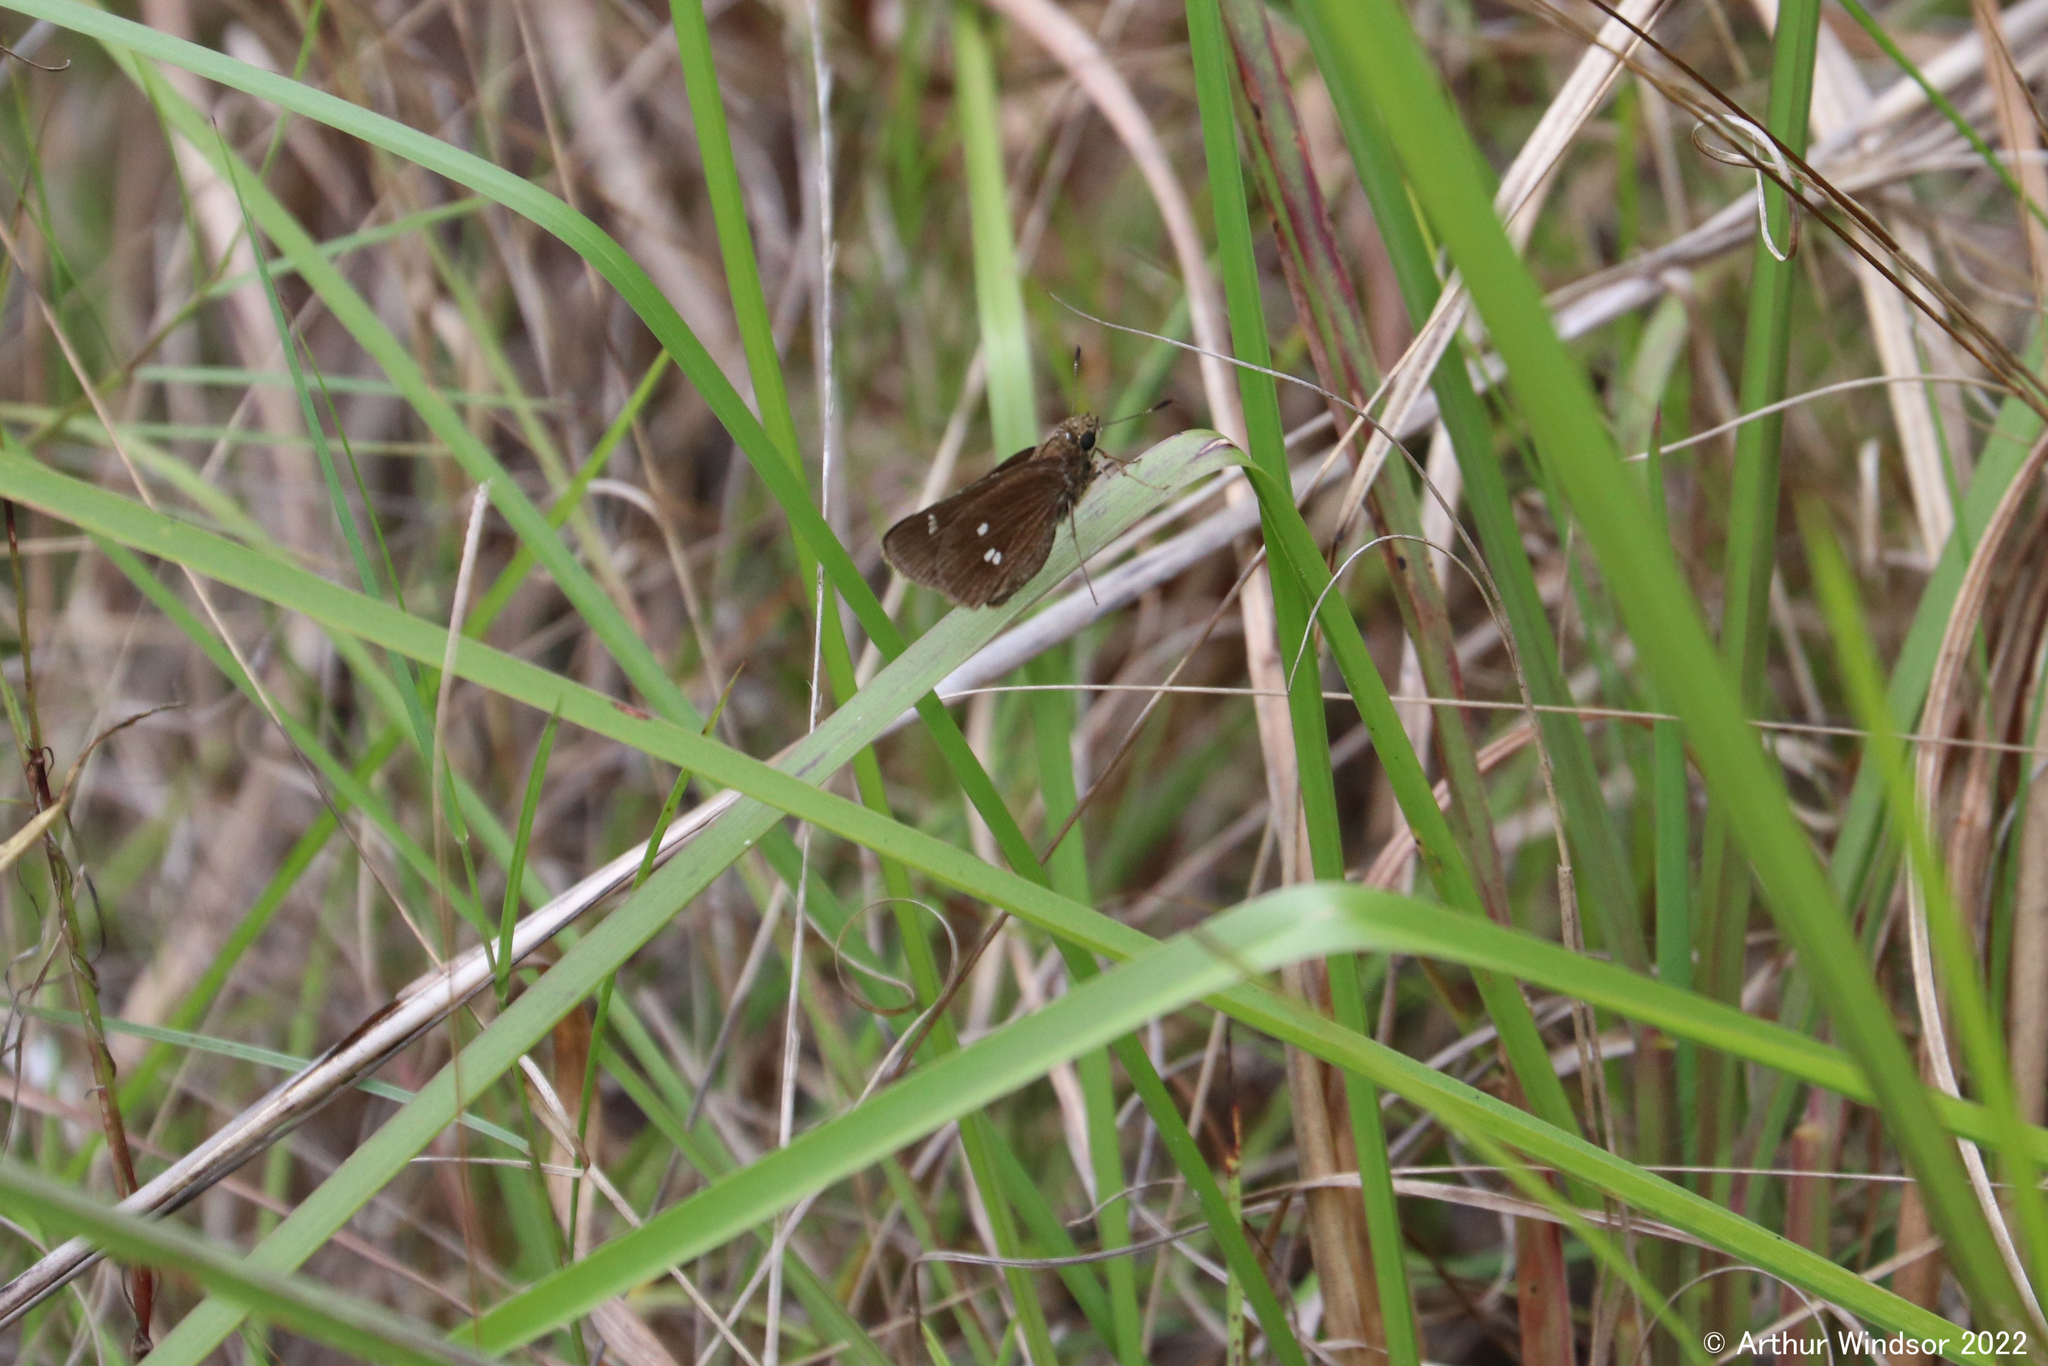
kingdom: Animalia
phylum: Arthropoda
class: Insecta
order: Lepidoptera
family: Hesperiidae
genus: Oligoria
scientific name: Oligoria maculata
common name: Twin-spot skipper
